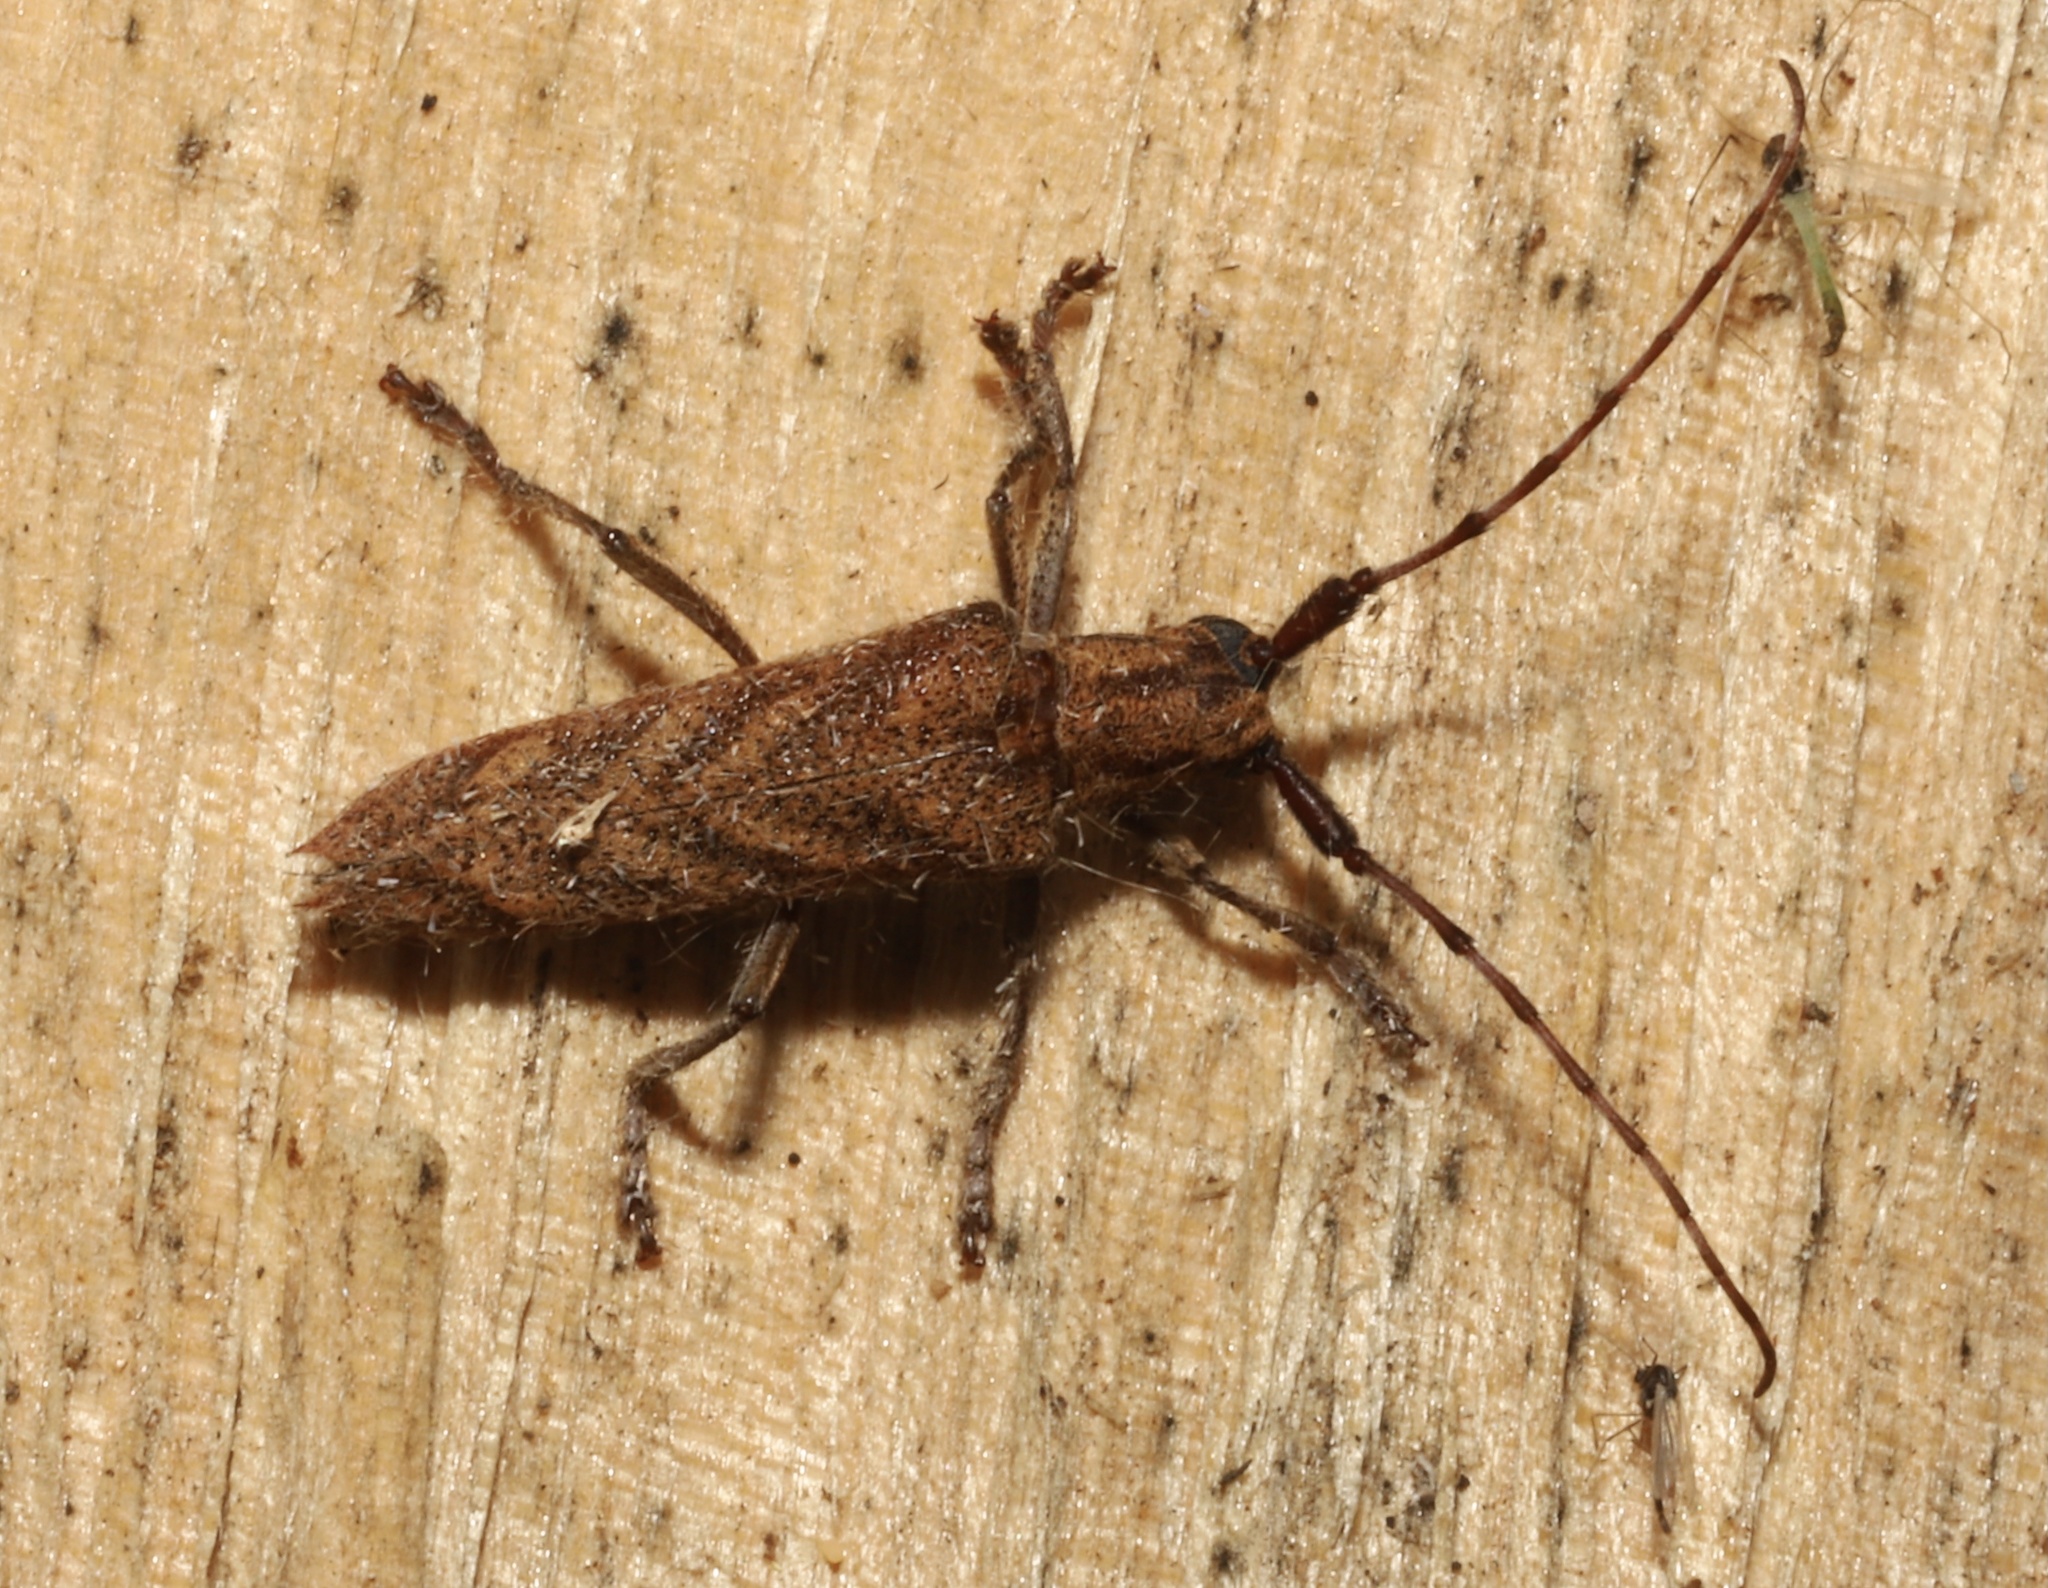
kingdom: Animalia
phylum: Arthropoda
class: Insecta
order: Coleoptera
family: Cerambycidae
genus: Saperda
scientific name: Saperda obliqua
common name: Alder borer
